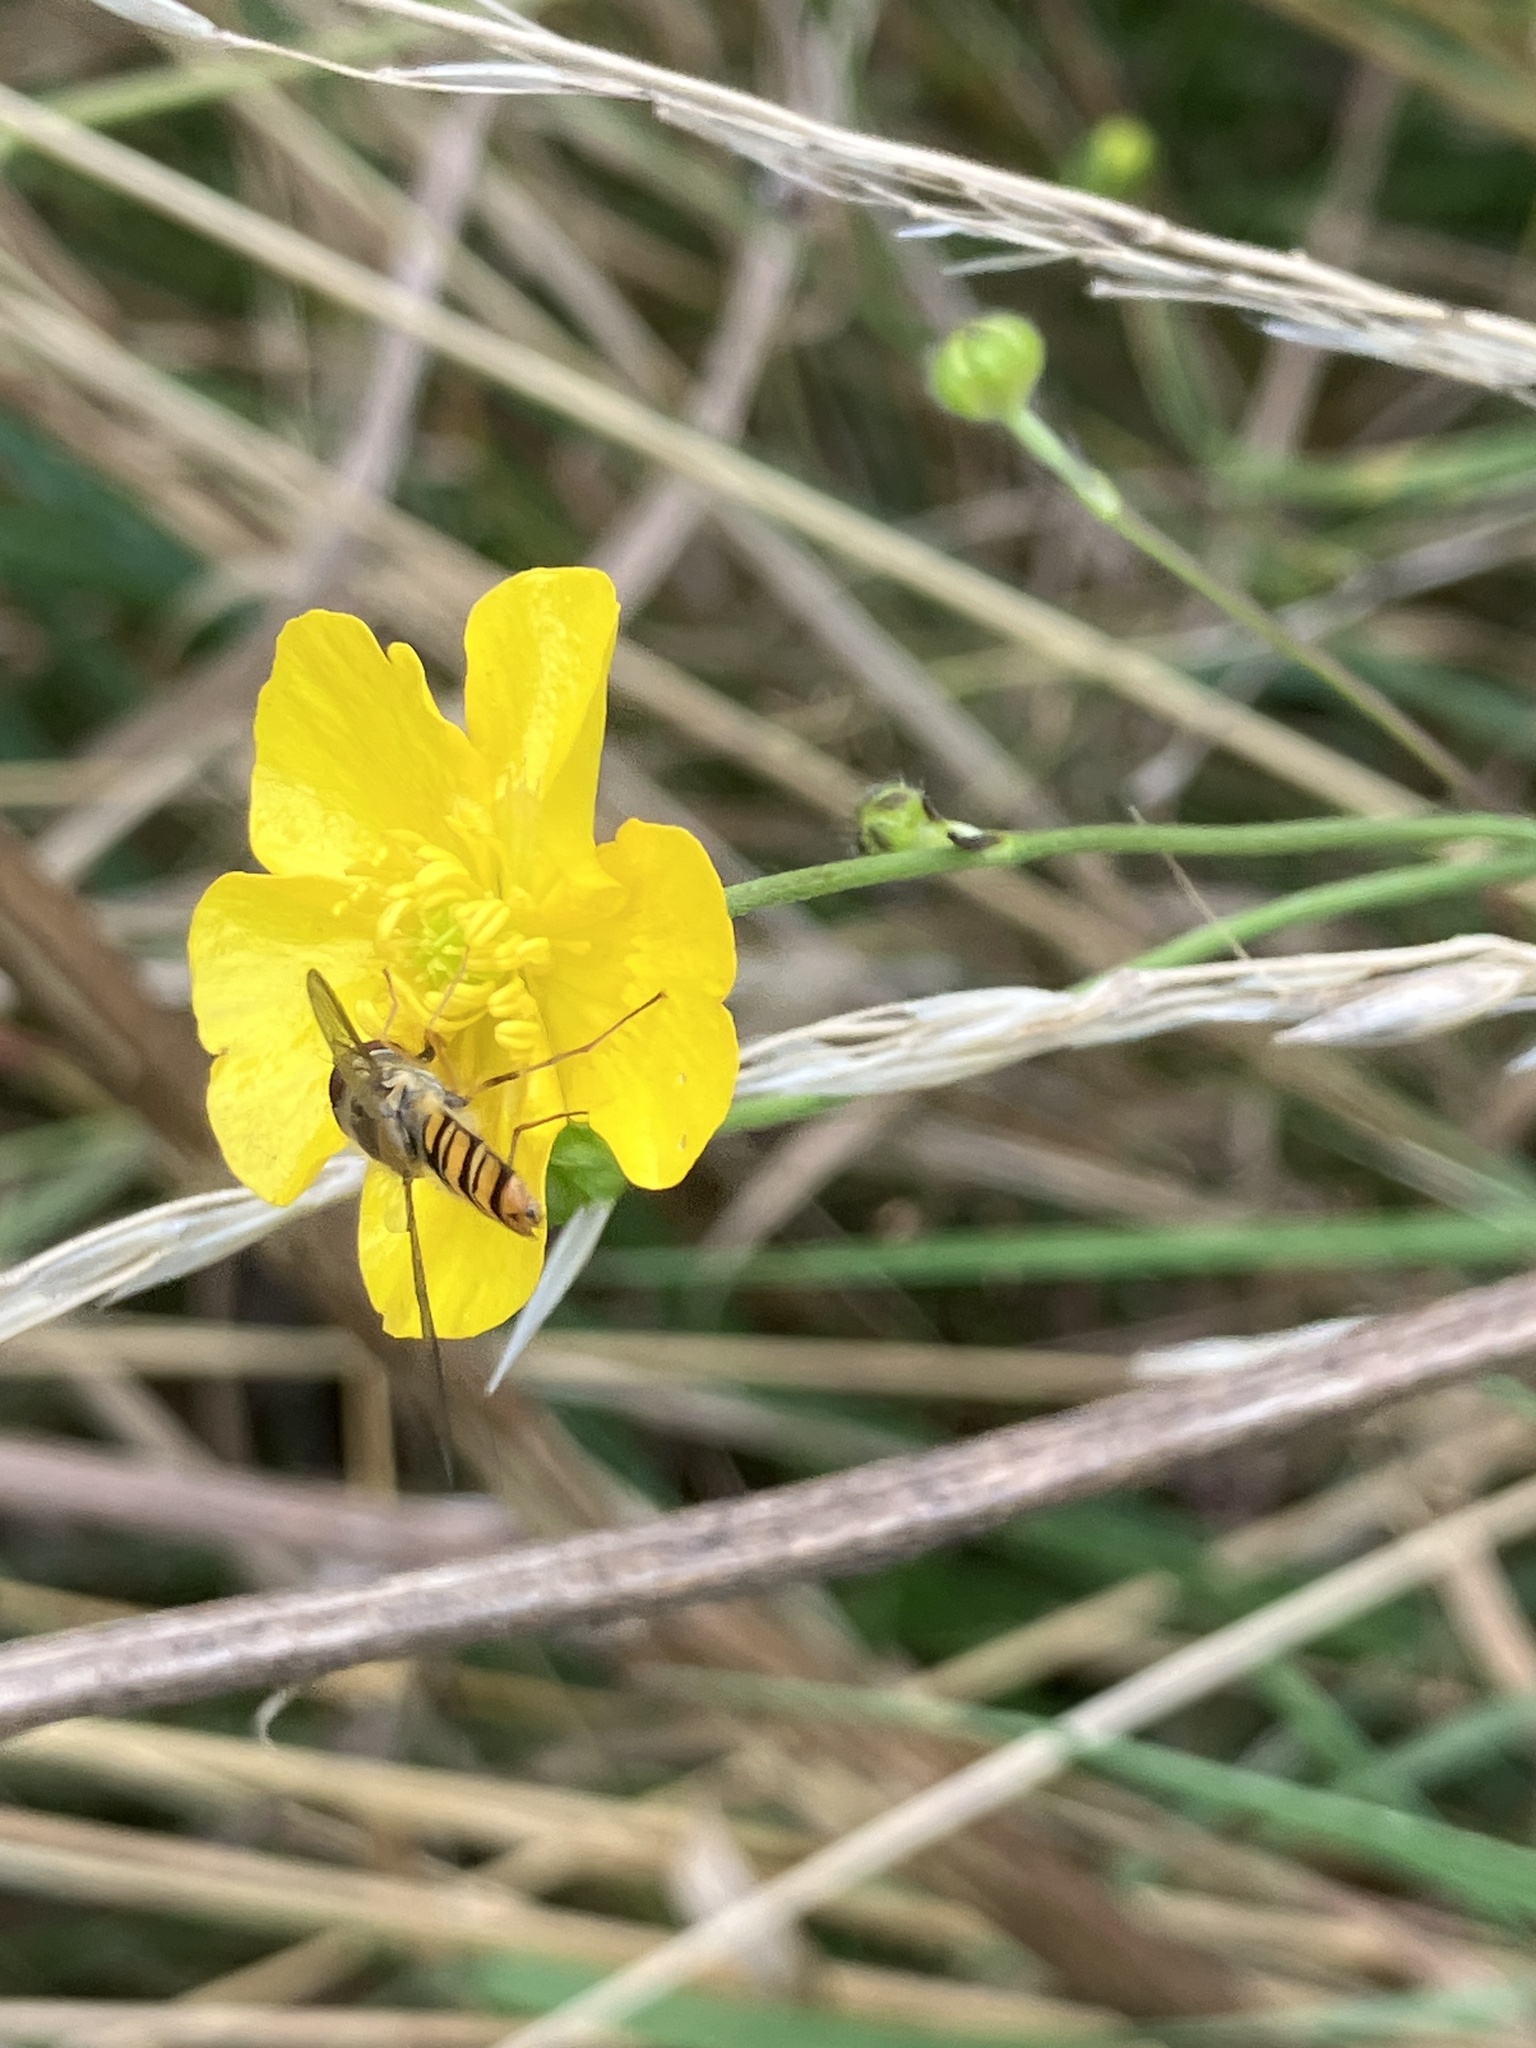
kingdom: Animalia
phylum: Arthropoda
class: Insecta
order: Diptera
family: Syrphidae
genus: Episyrphus
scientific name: Episyrphus balteatus
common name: Marmalade hoverfly
